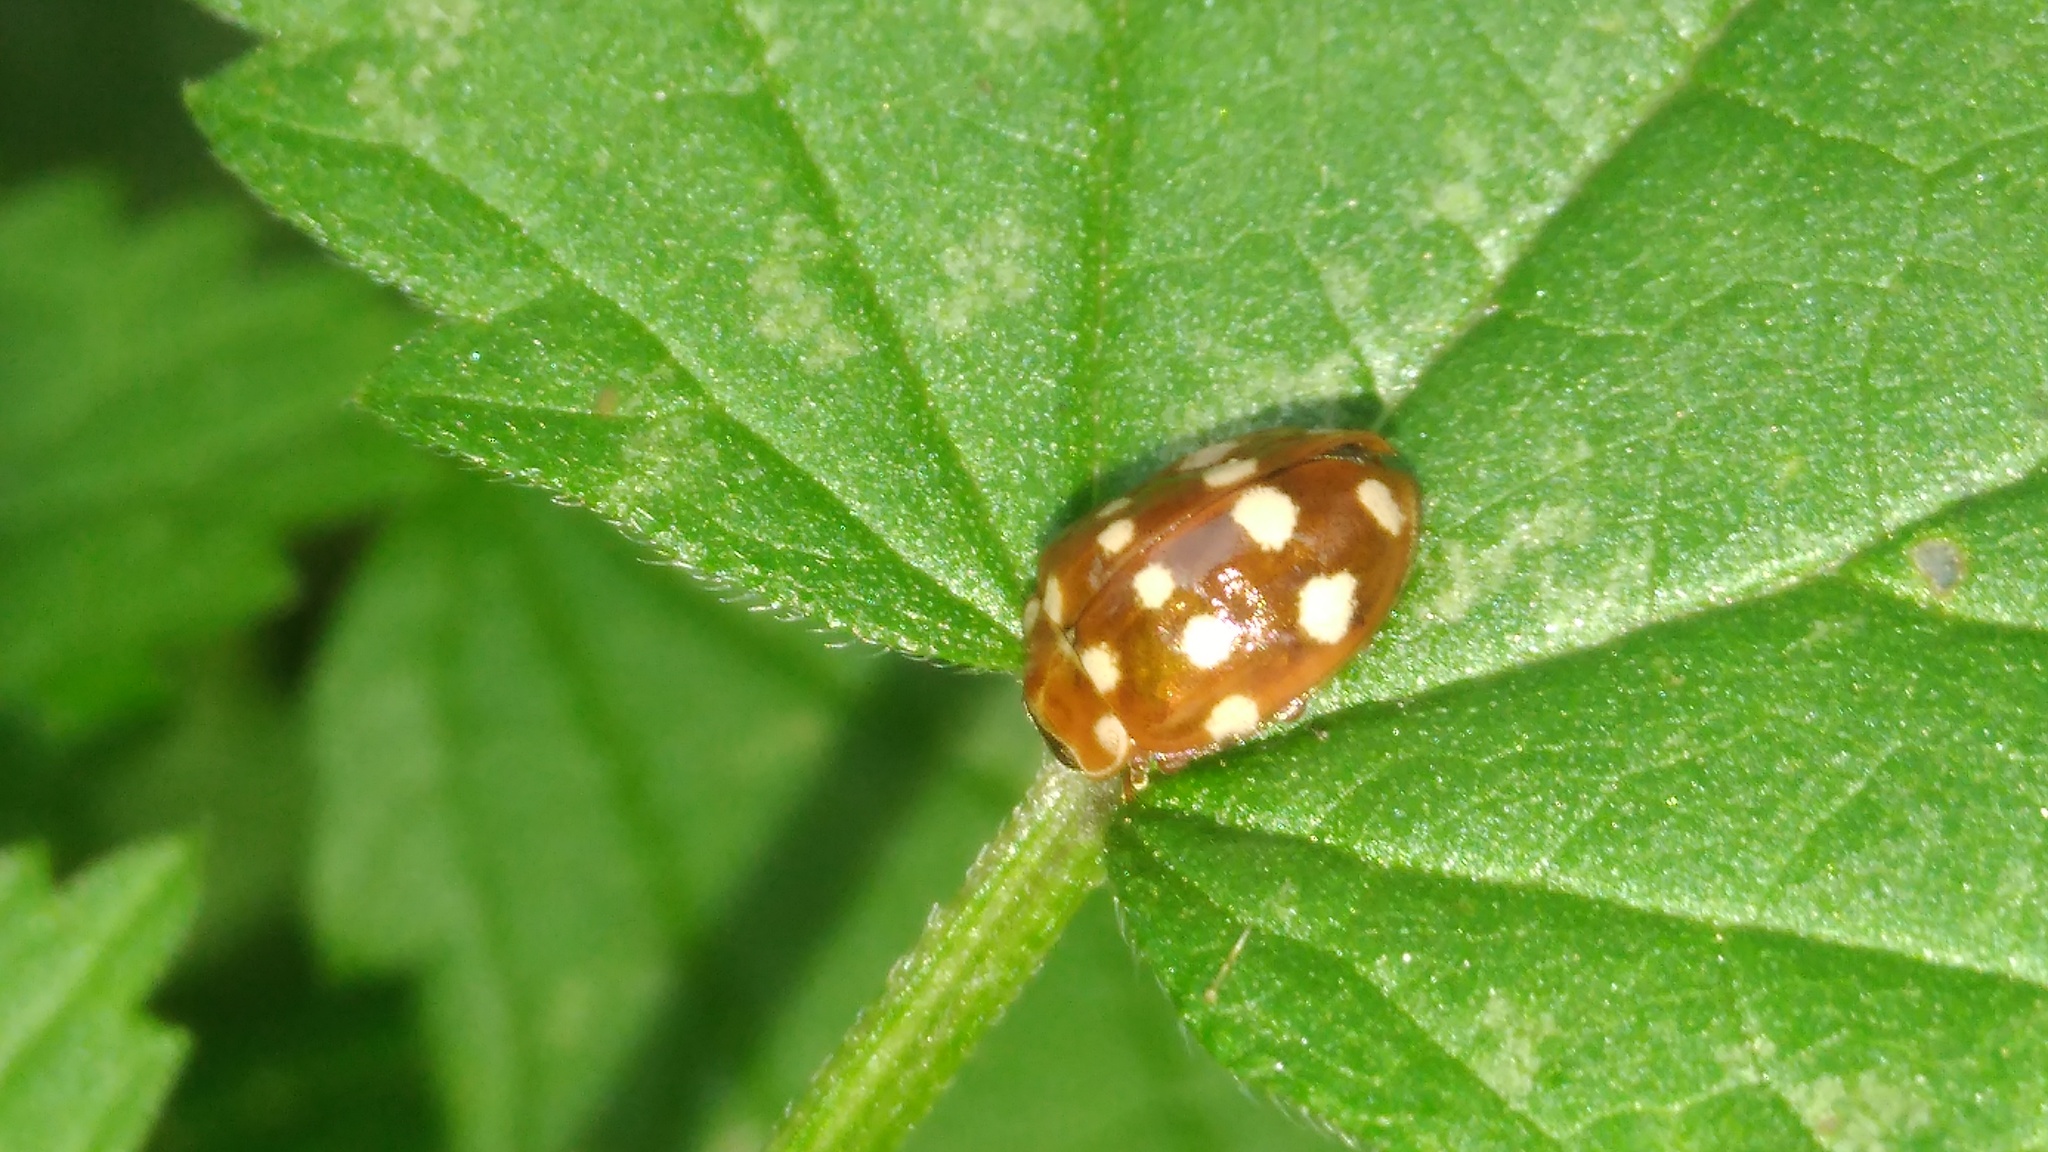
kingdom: Animalia
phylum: Arthropoda
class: Insecta
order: Coleoptera
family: Coccinellidae
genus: Calvia
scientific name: Calvia quatuordecimguttata
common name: Cream-spot ladybird
